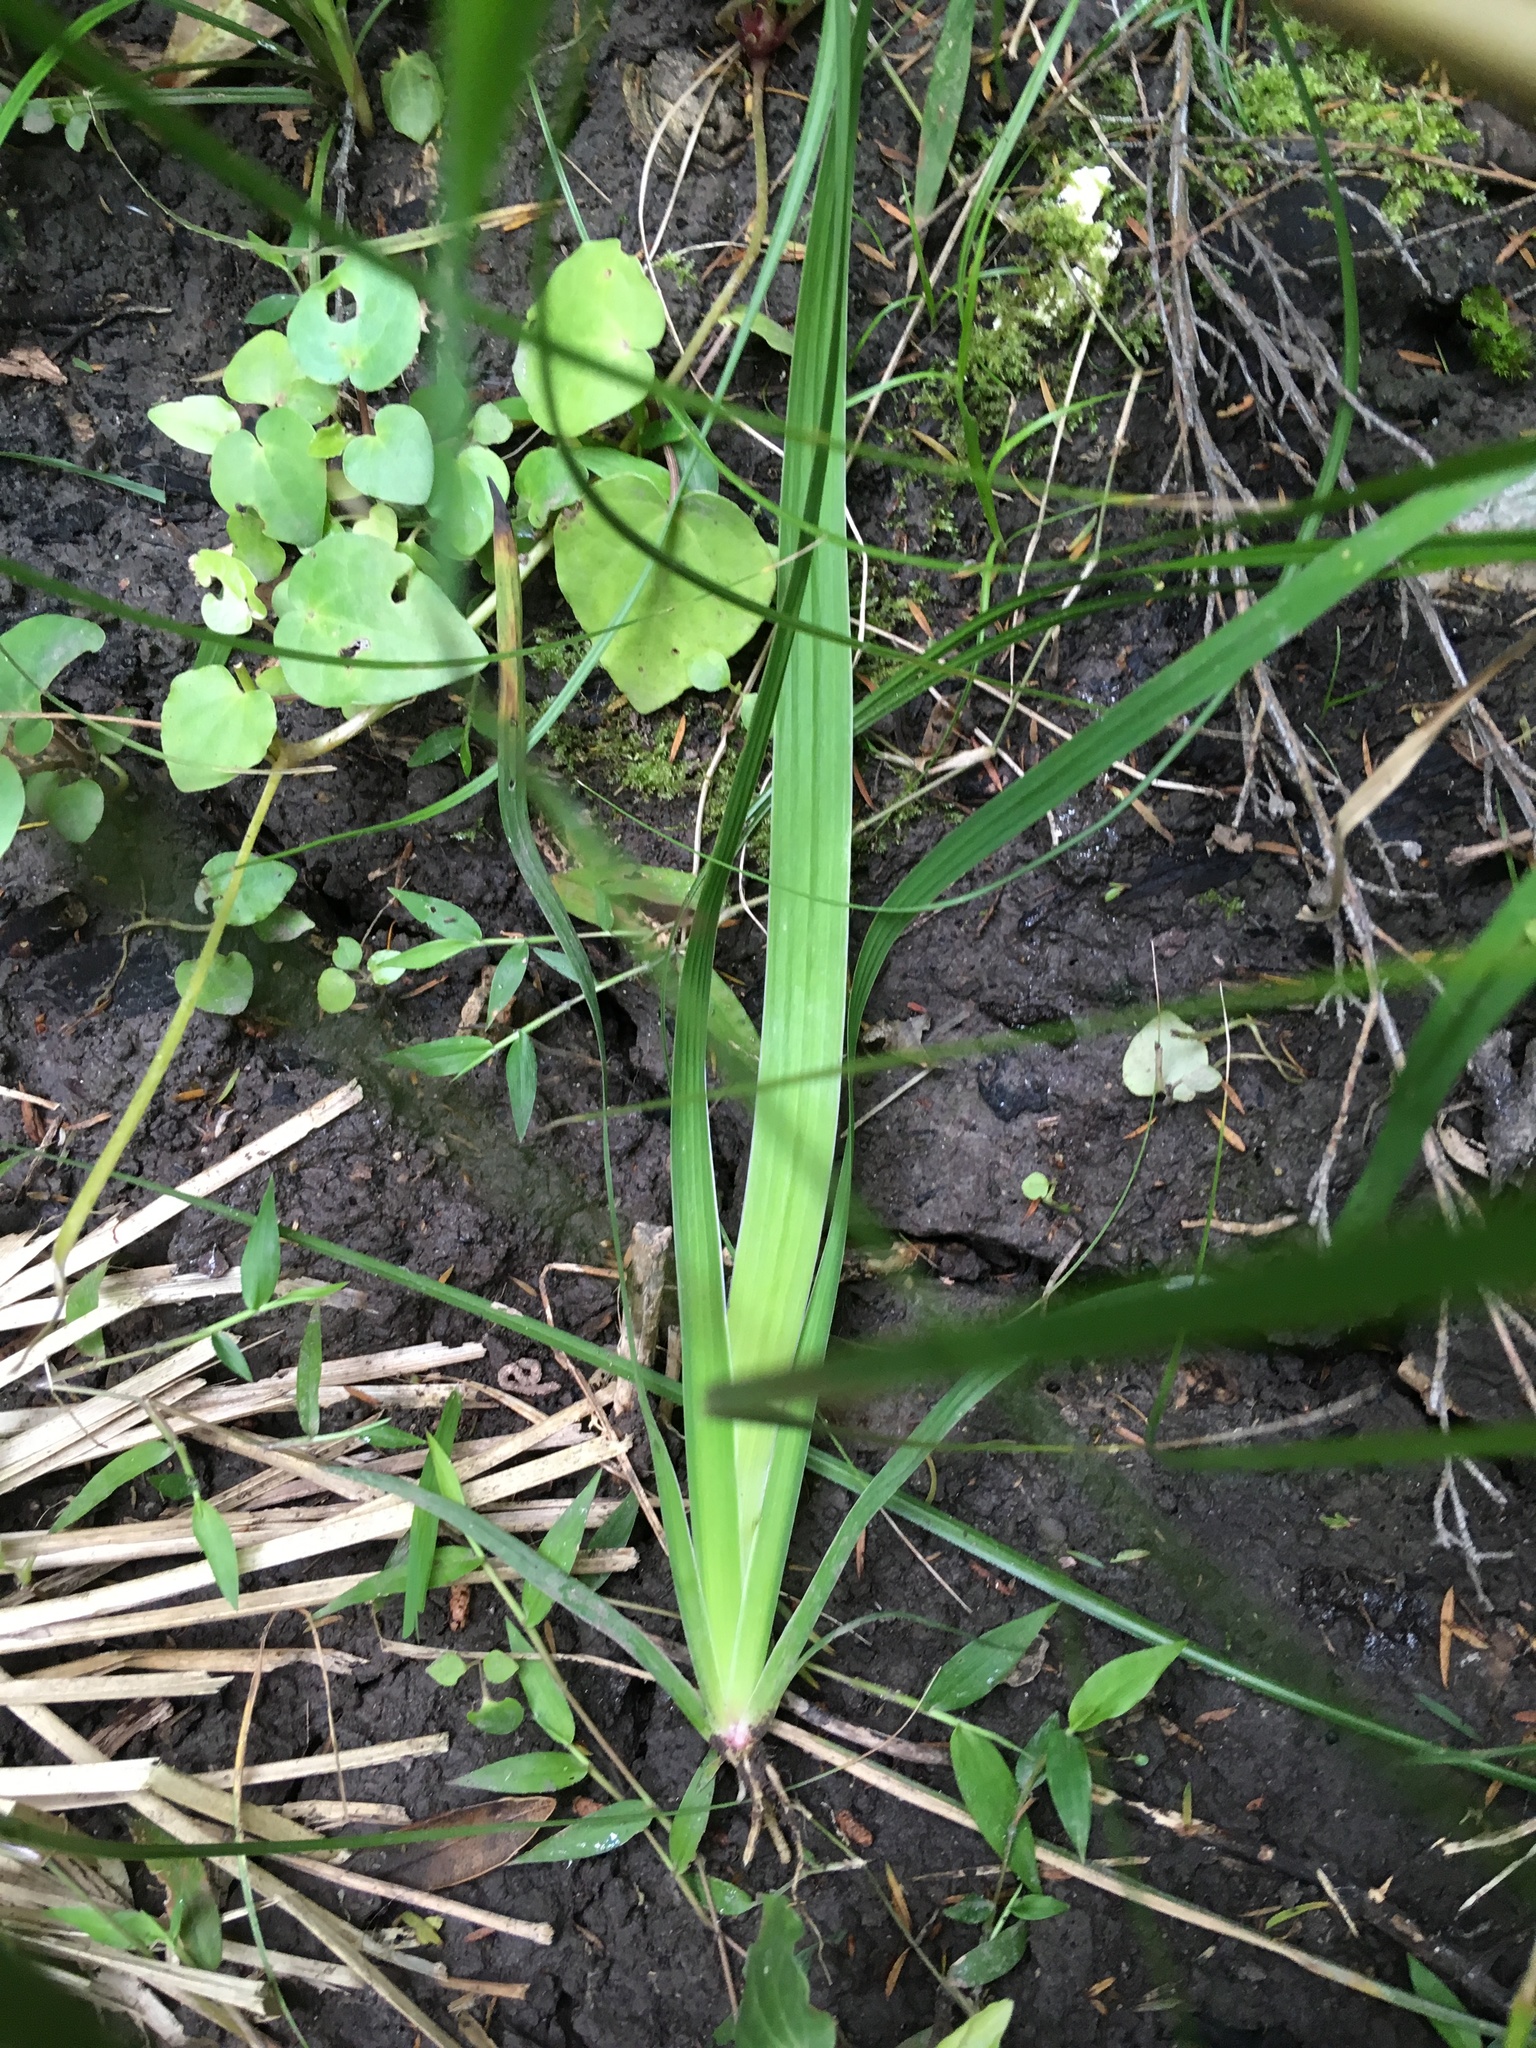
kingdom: Plantae
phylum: Tracheophyta
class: Liliopsida
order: Asparagales
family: Iridaceae
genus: Aristea
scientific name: Aristea ecklonii
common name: Blue corn-lily
